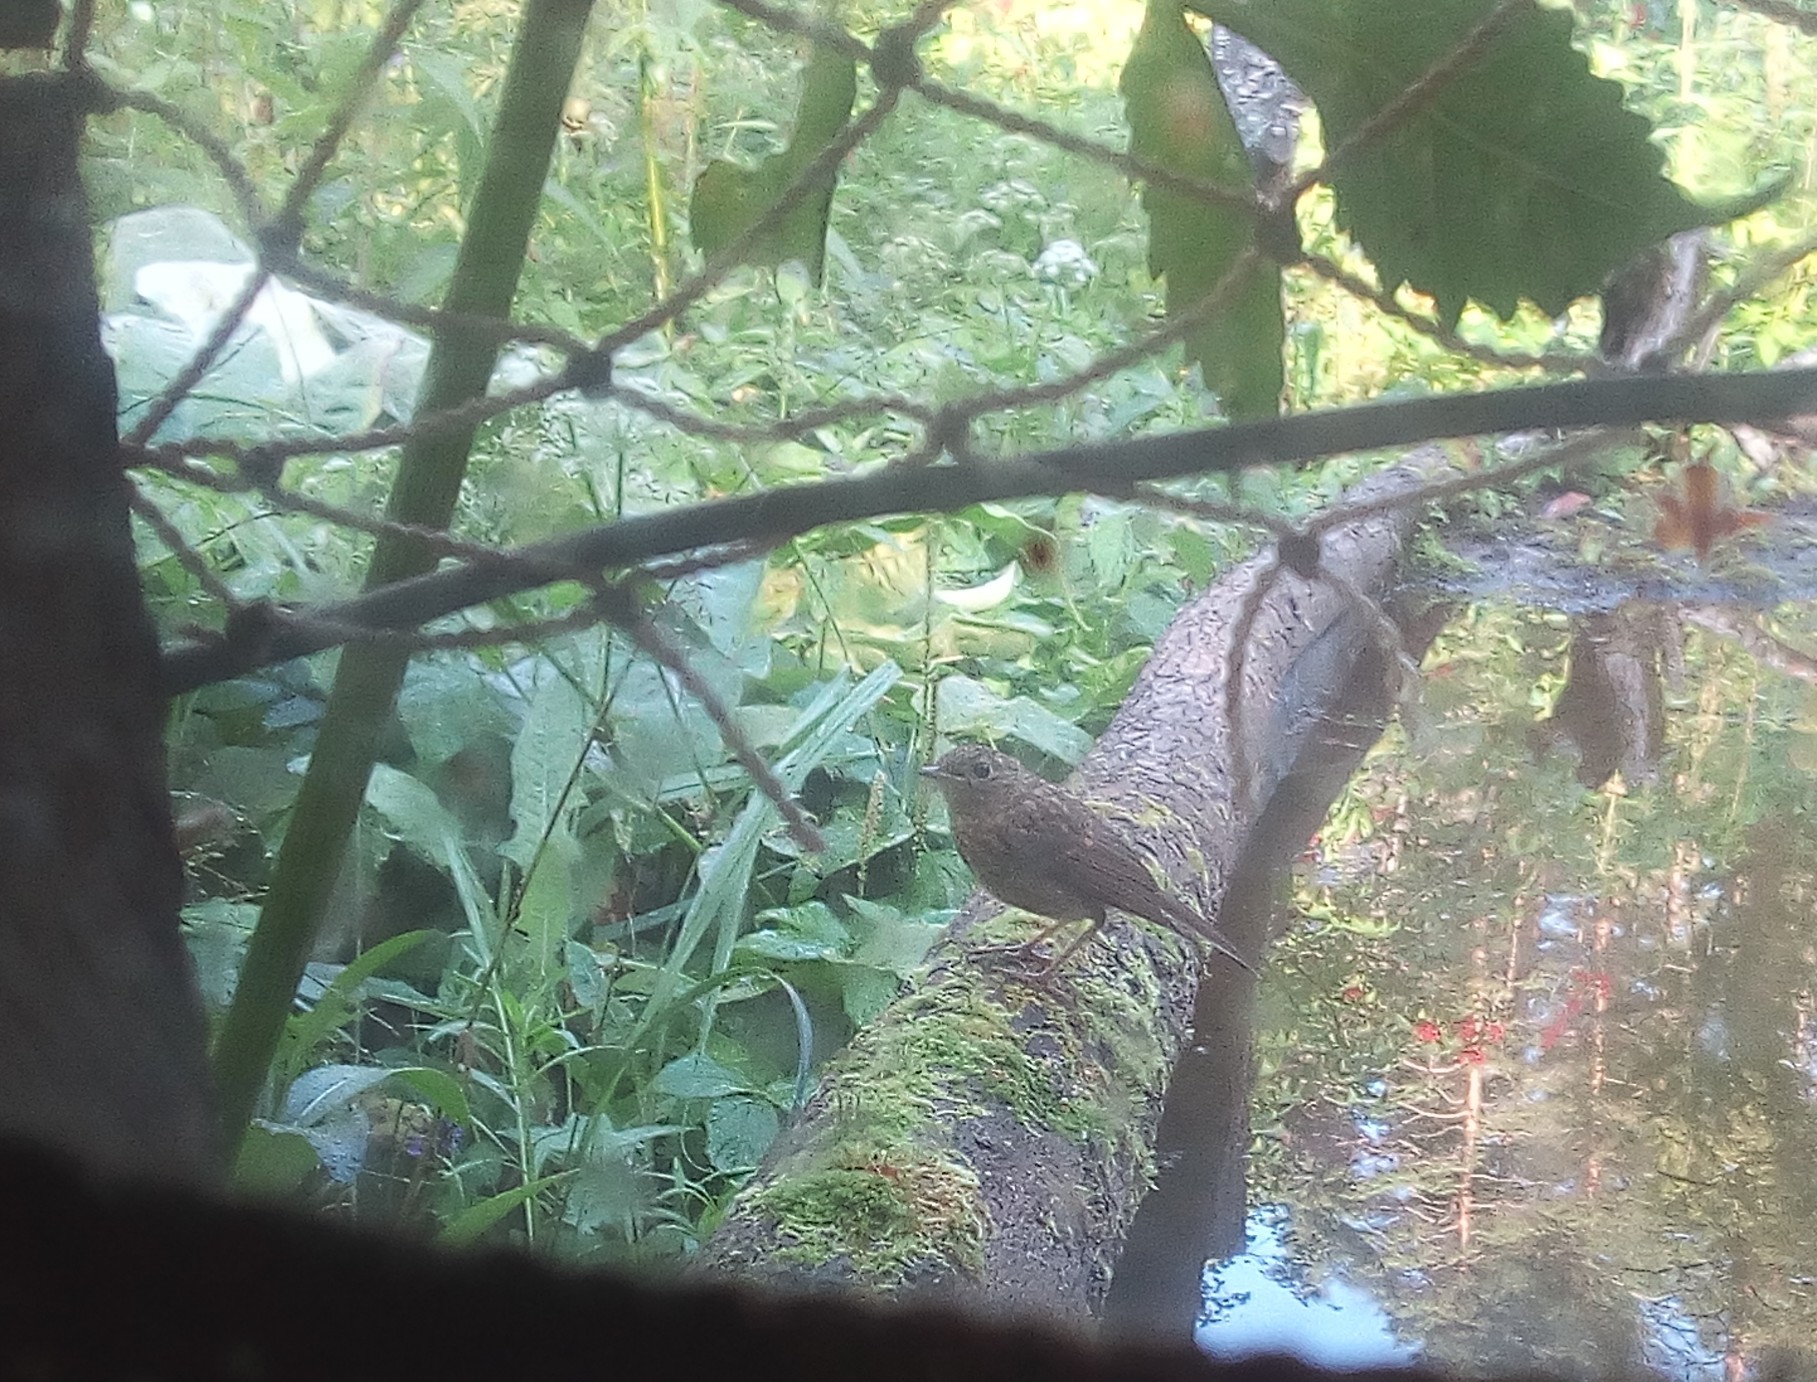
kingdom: Animalia
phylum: Chordata
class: Aves
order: Passeriformes
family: Muscicapidae
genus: Erithacus
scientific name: Erithacus rubecula
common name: European robin
